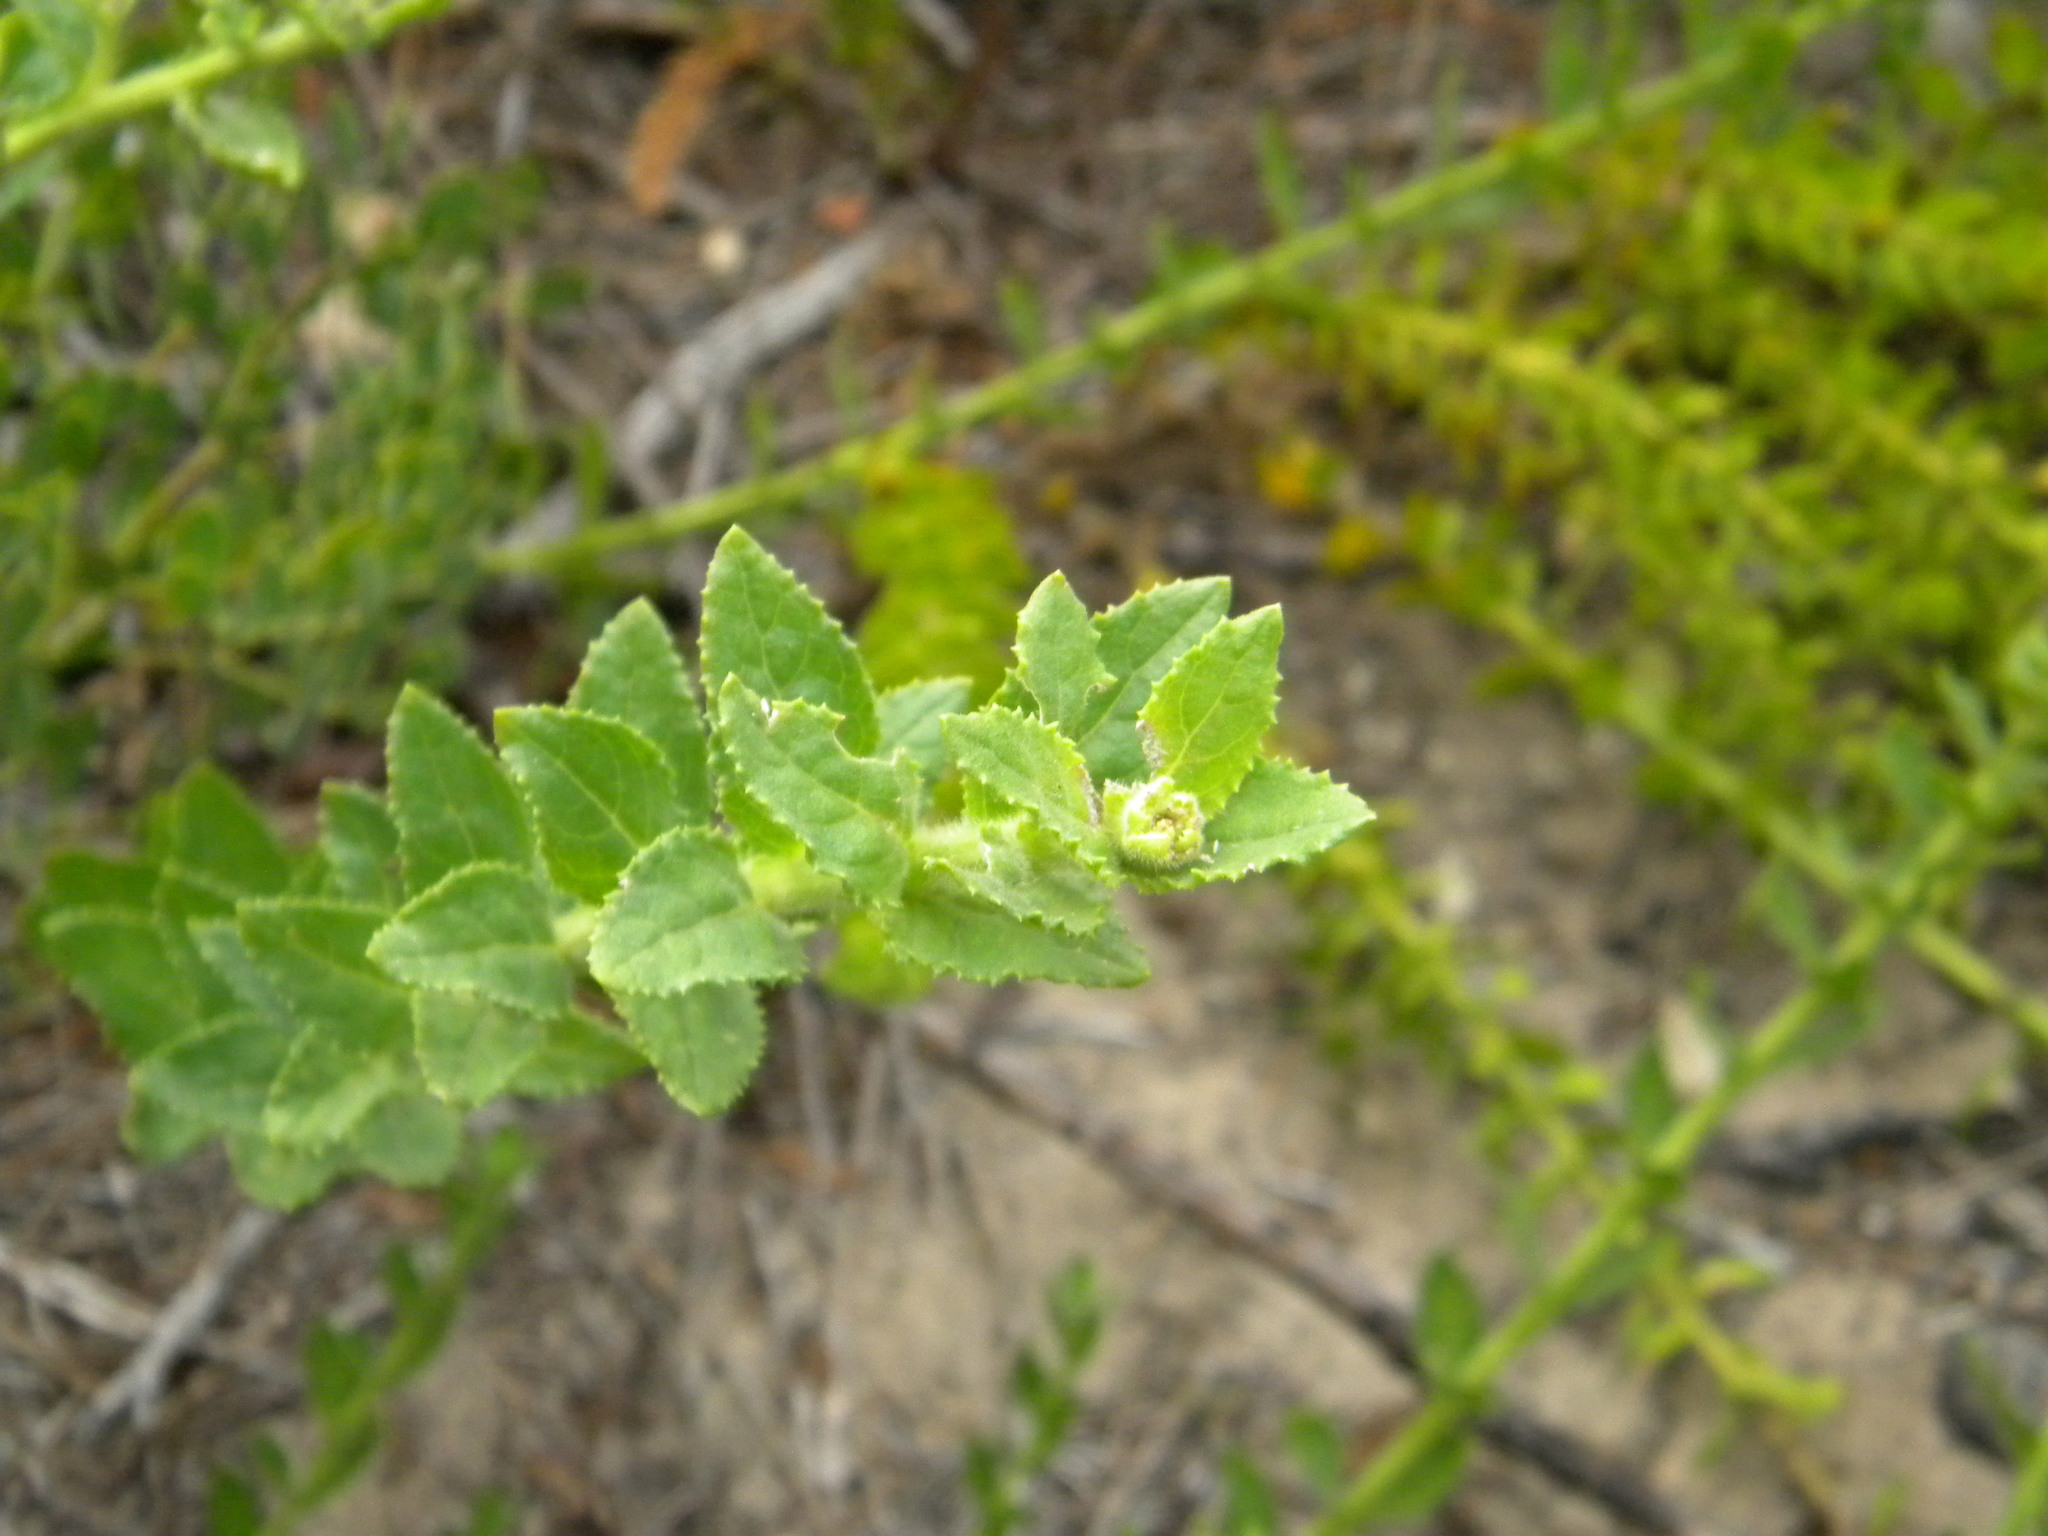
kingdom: Plantae
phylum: Tracheophyta
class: Magnoliopsida
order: Lamiales
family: Scrophulariaceae
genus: Oftia
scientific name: Oftia africana
